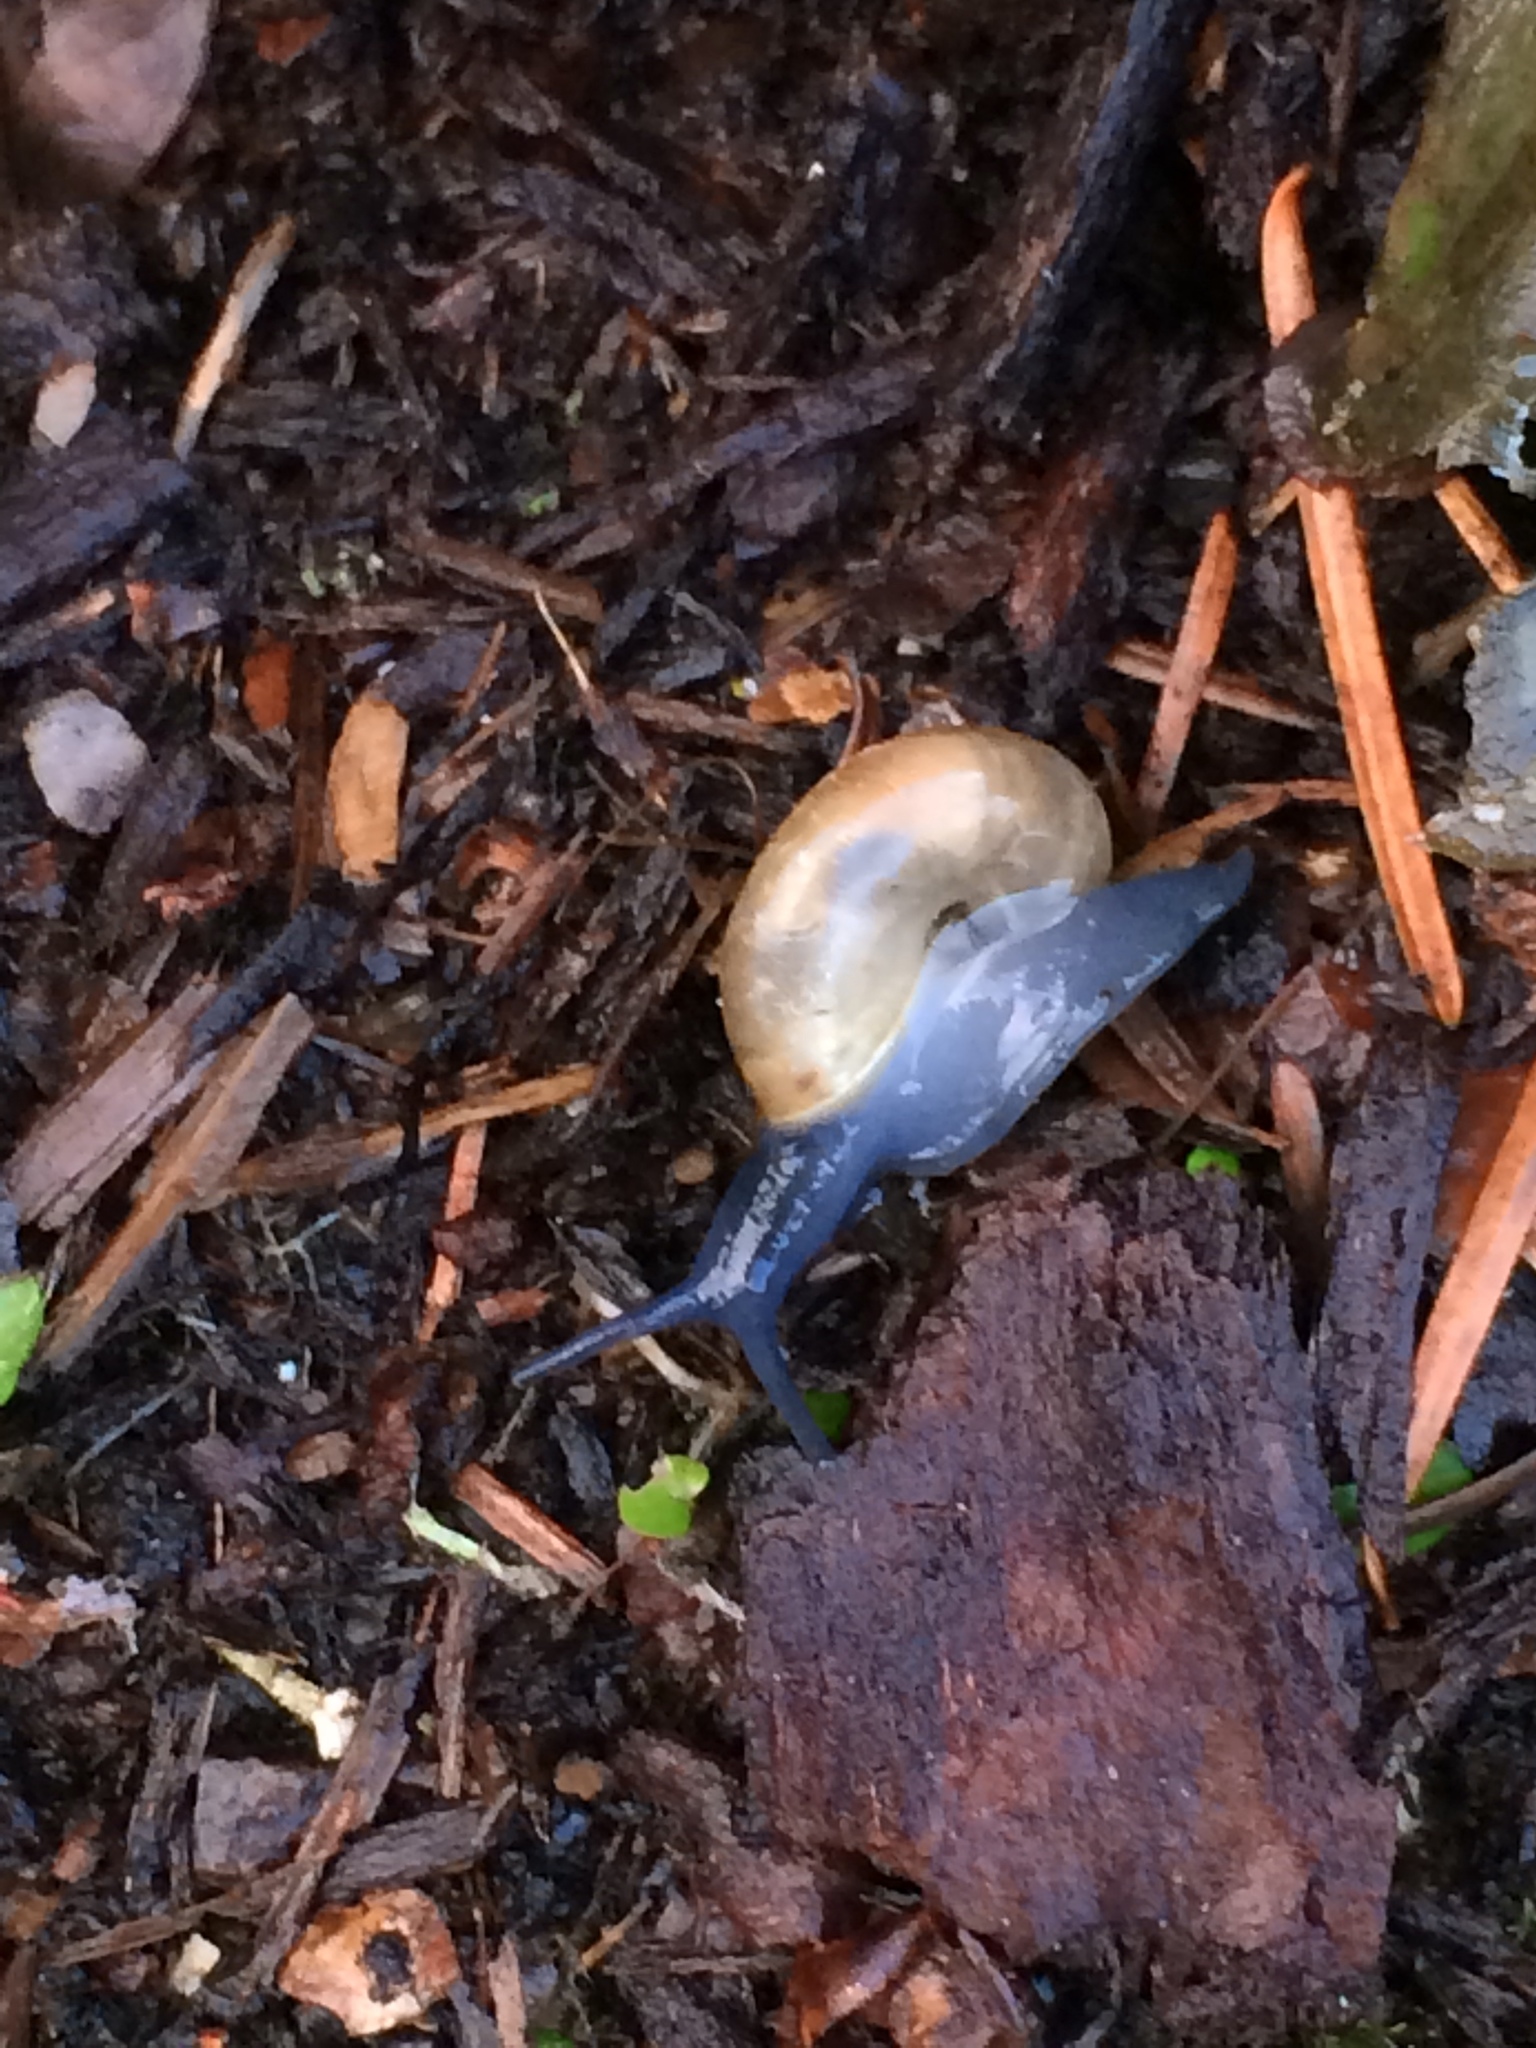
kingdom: Animalia
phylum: Mollusca
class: Gastropoda
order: Stylommatophora
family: Oxychilidae
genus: Oxychilus
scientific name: Oxychilus draparnaudi
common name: Draparnaud's glass snail
